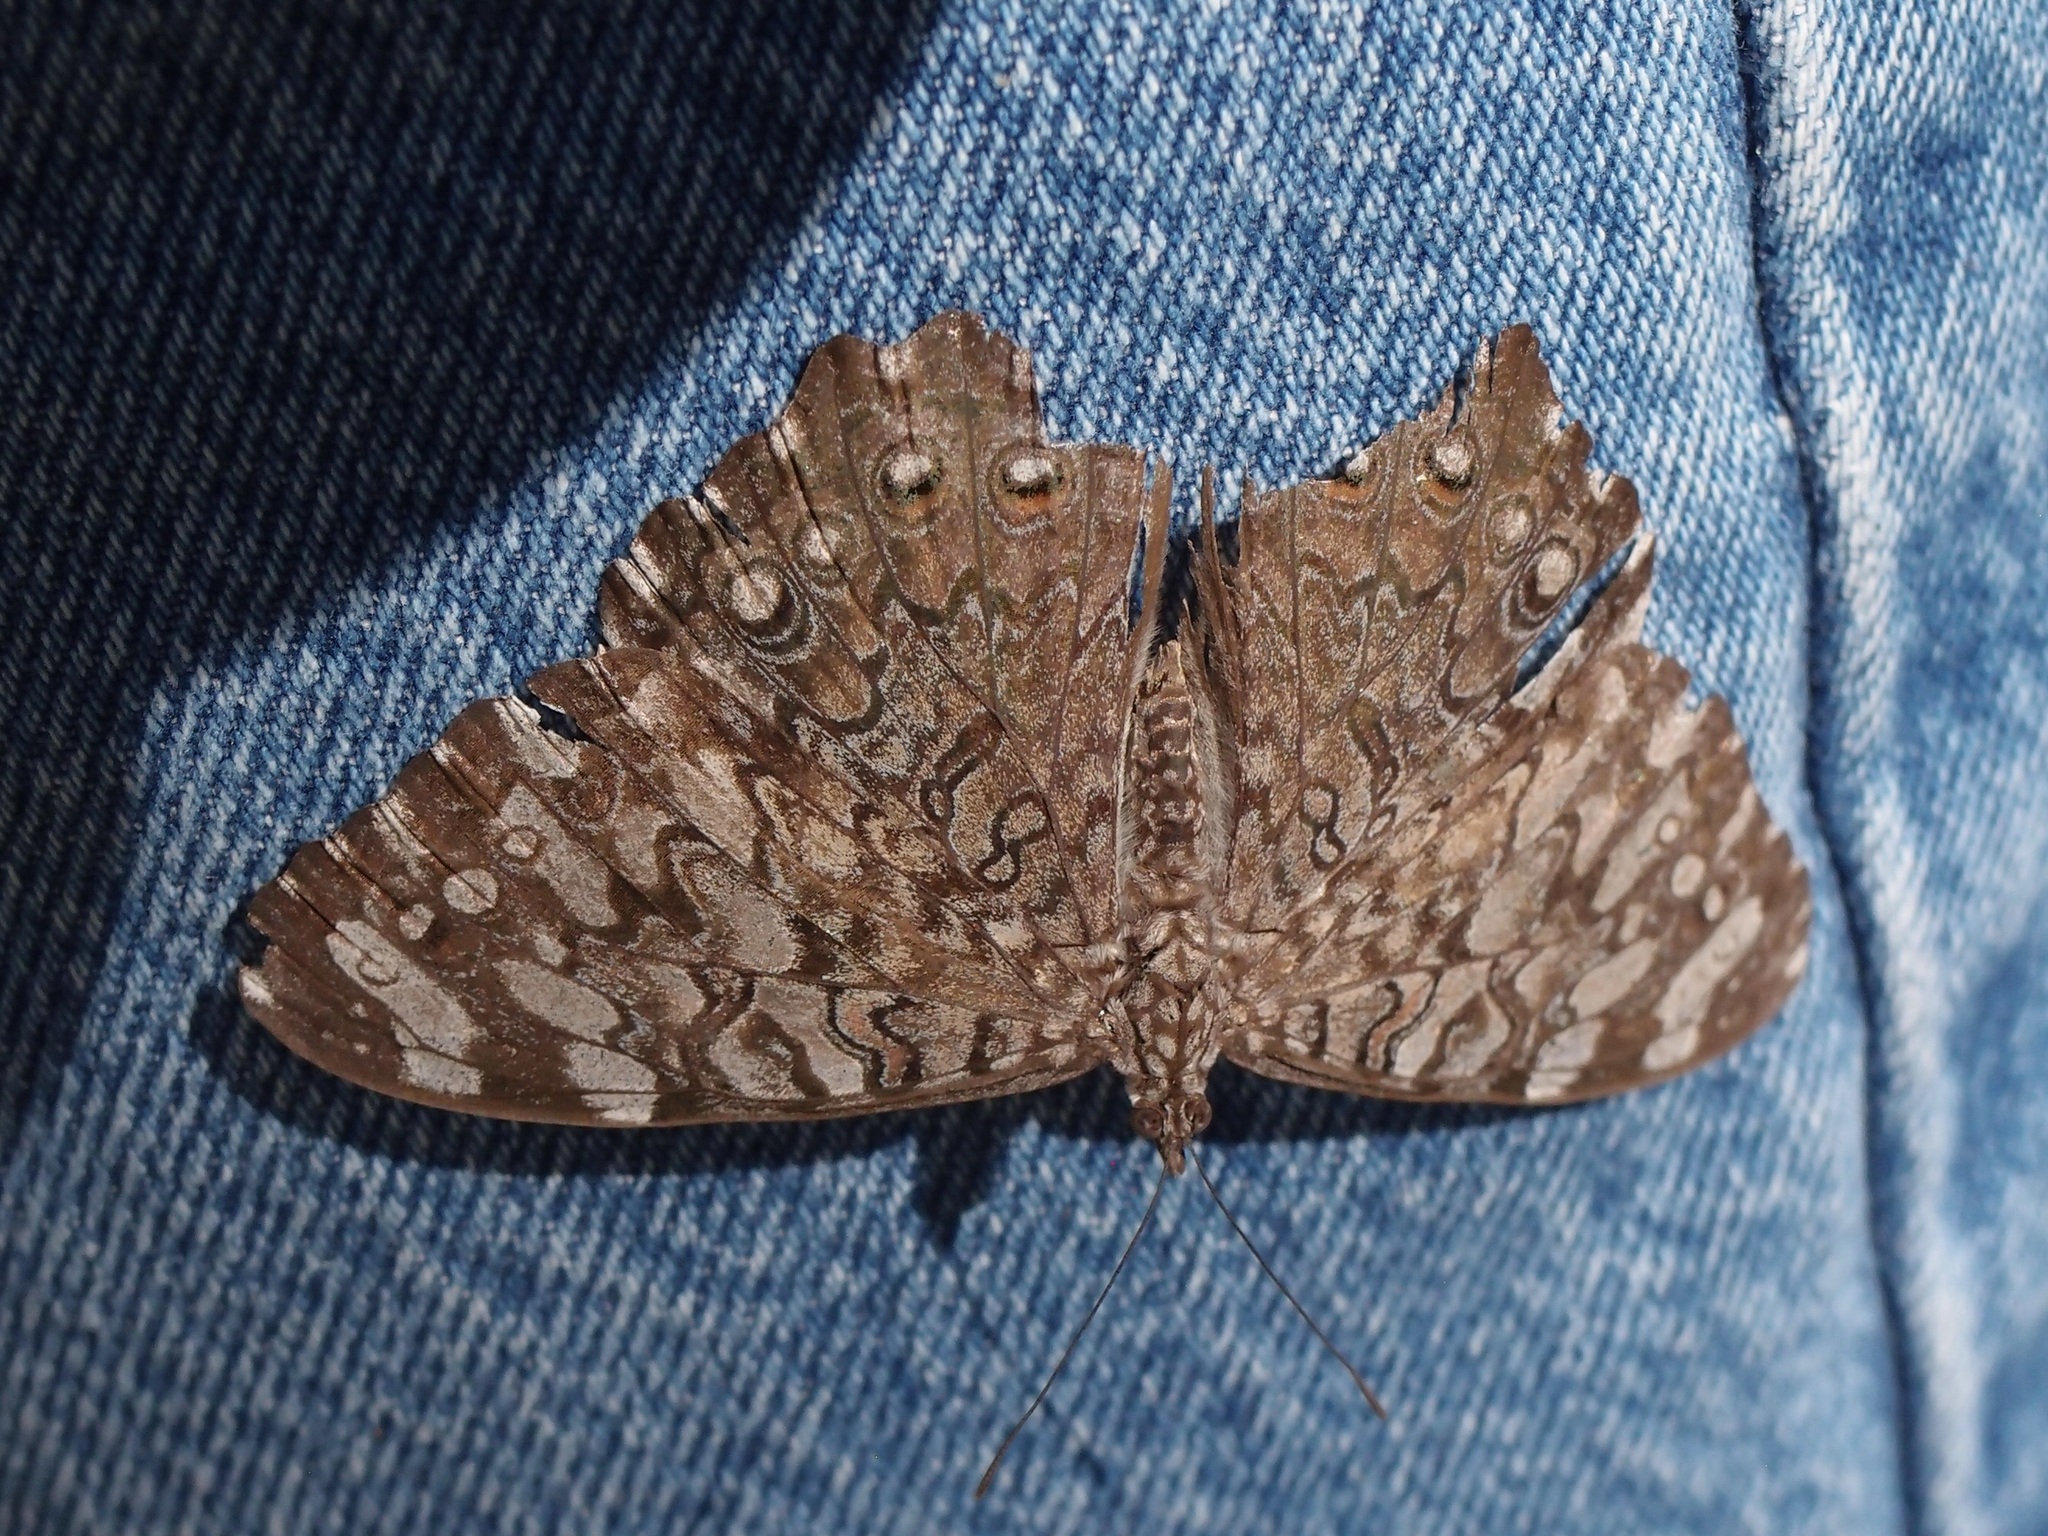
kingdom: Animalia
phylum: Arthropoda
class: Insecta
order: Lepidoptera
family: Nymphalidae
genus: Hamadryas
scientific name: Hamadryas februa
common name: Gray cracker
